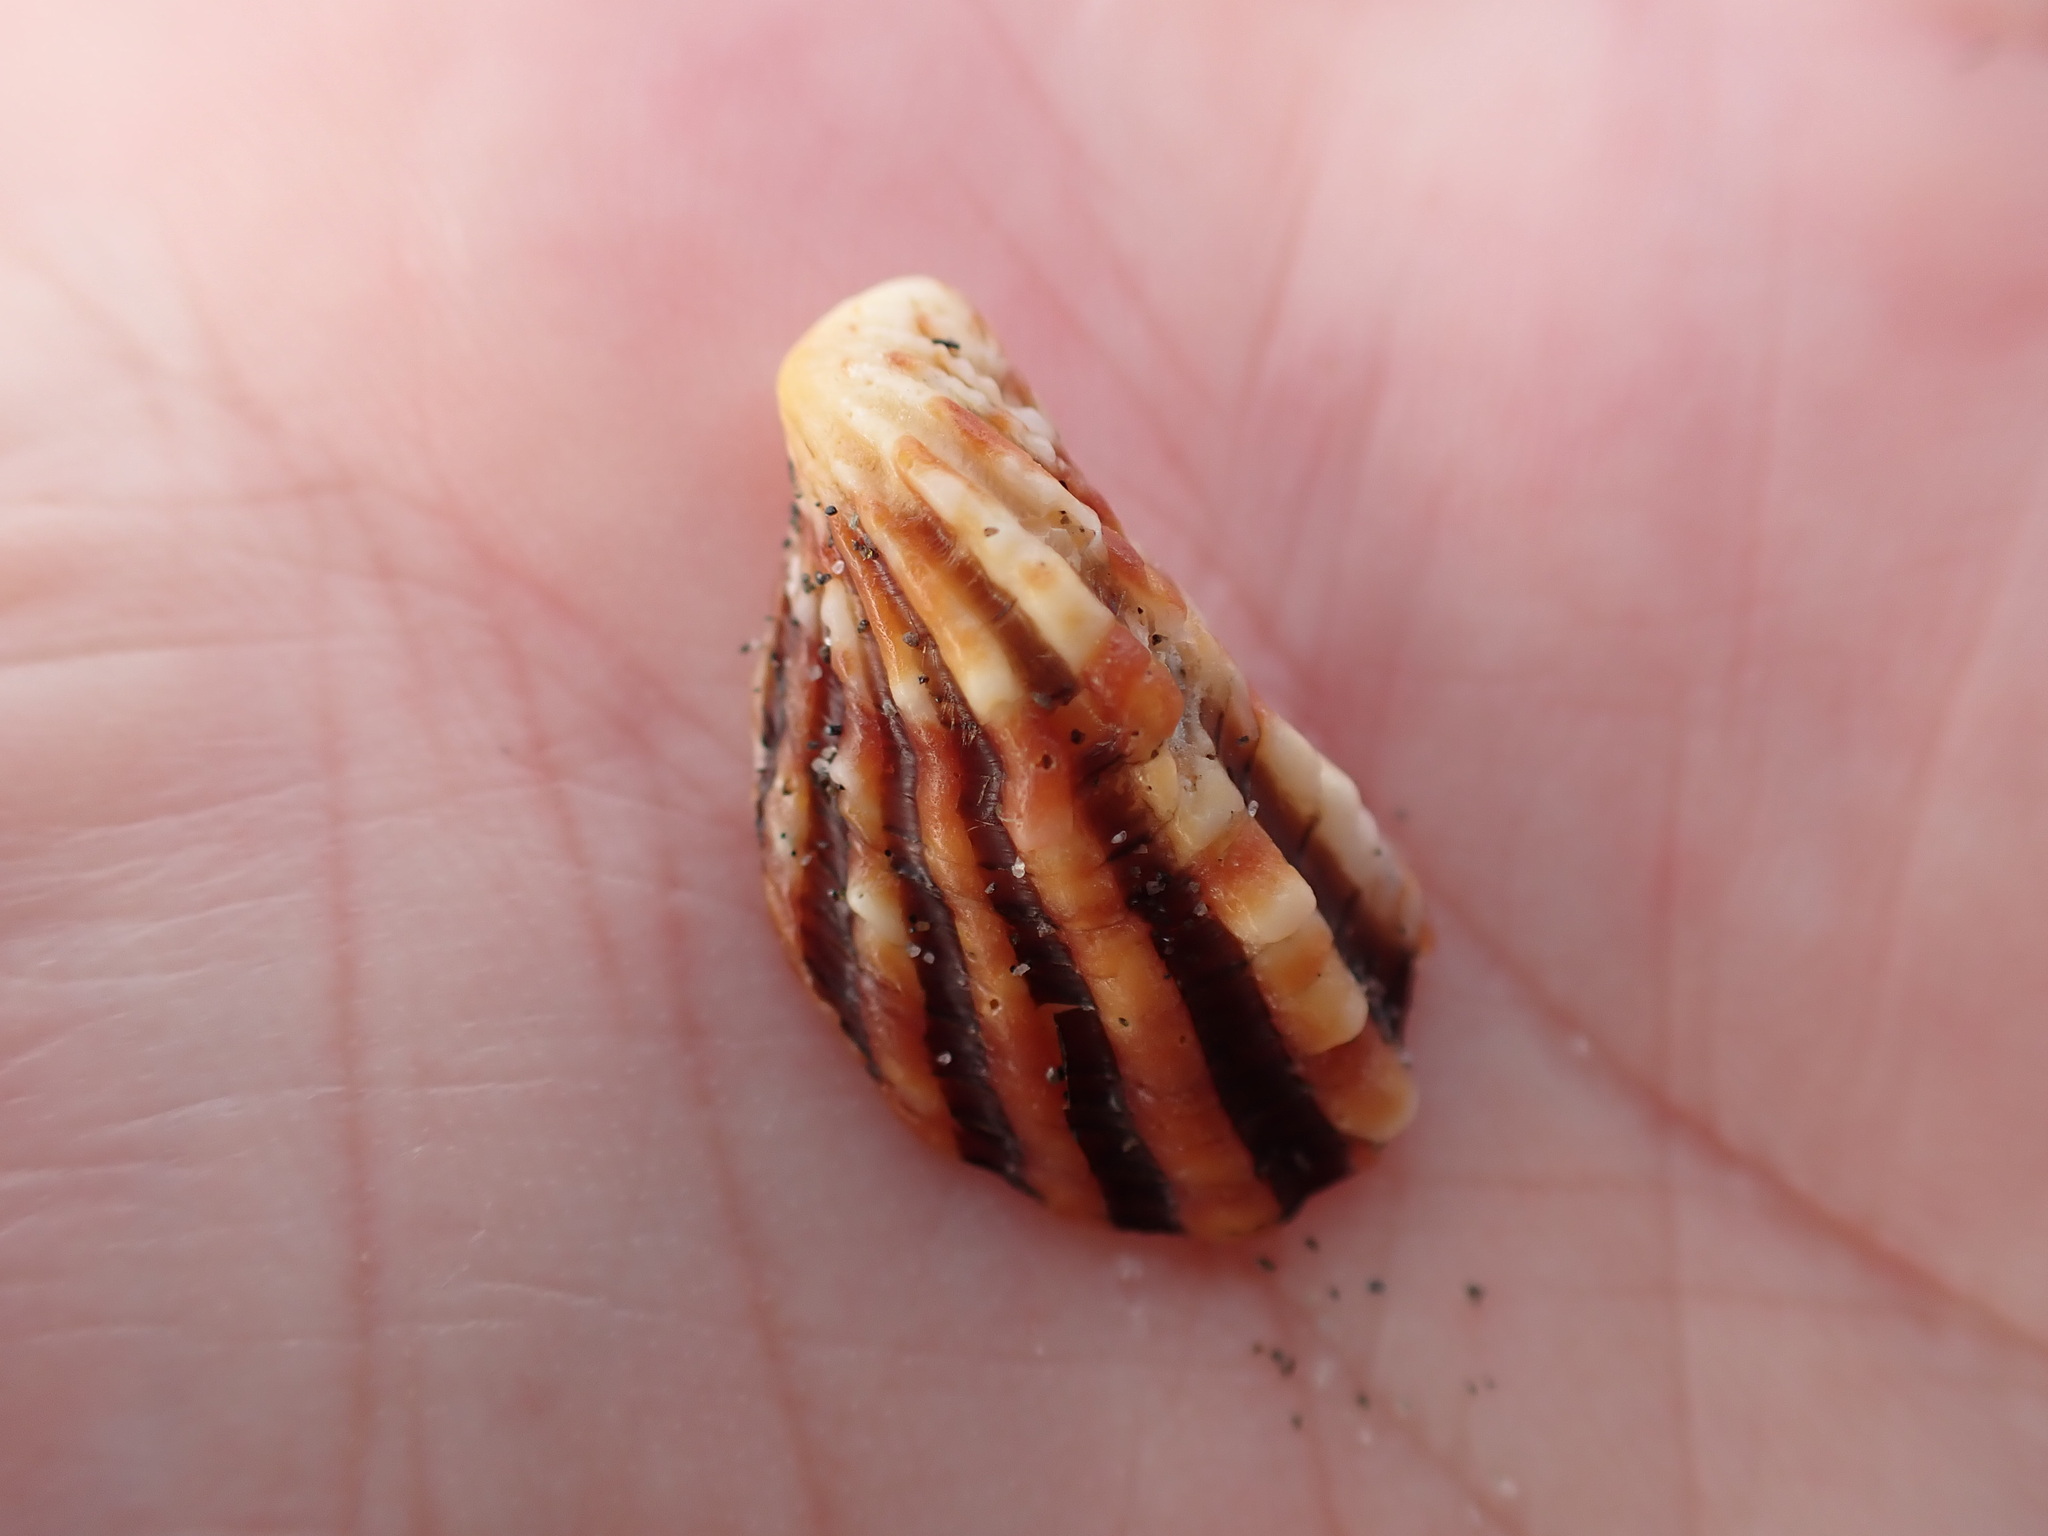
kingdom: Animalia
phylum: Mollusca
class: Bivalvia
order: Carditida
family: Carditidae
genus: Cardita
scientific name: Cardita distorta
